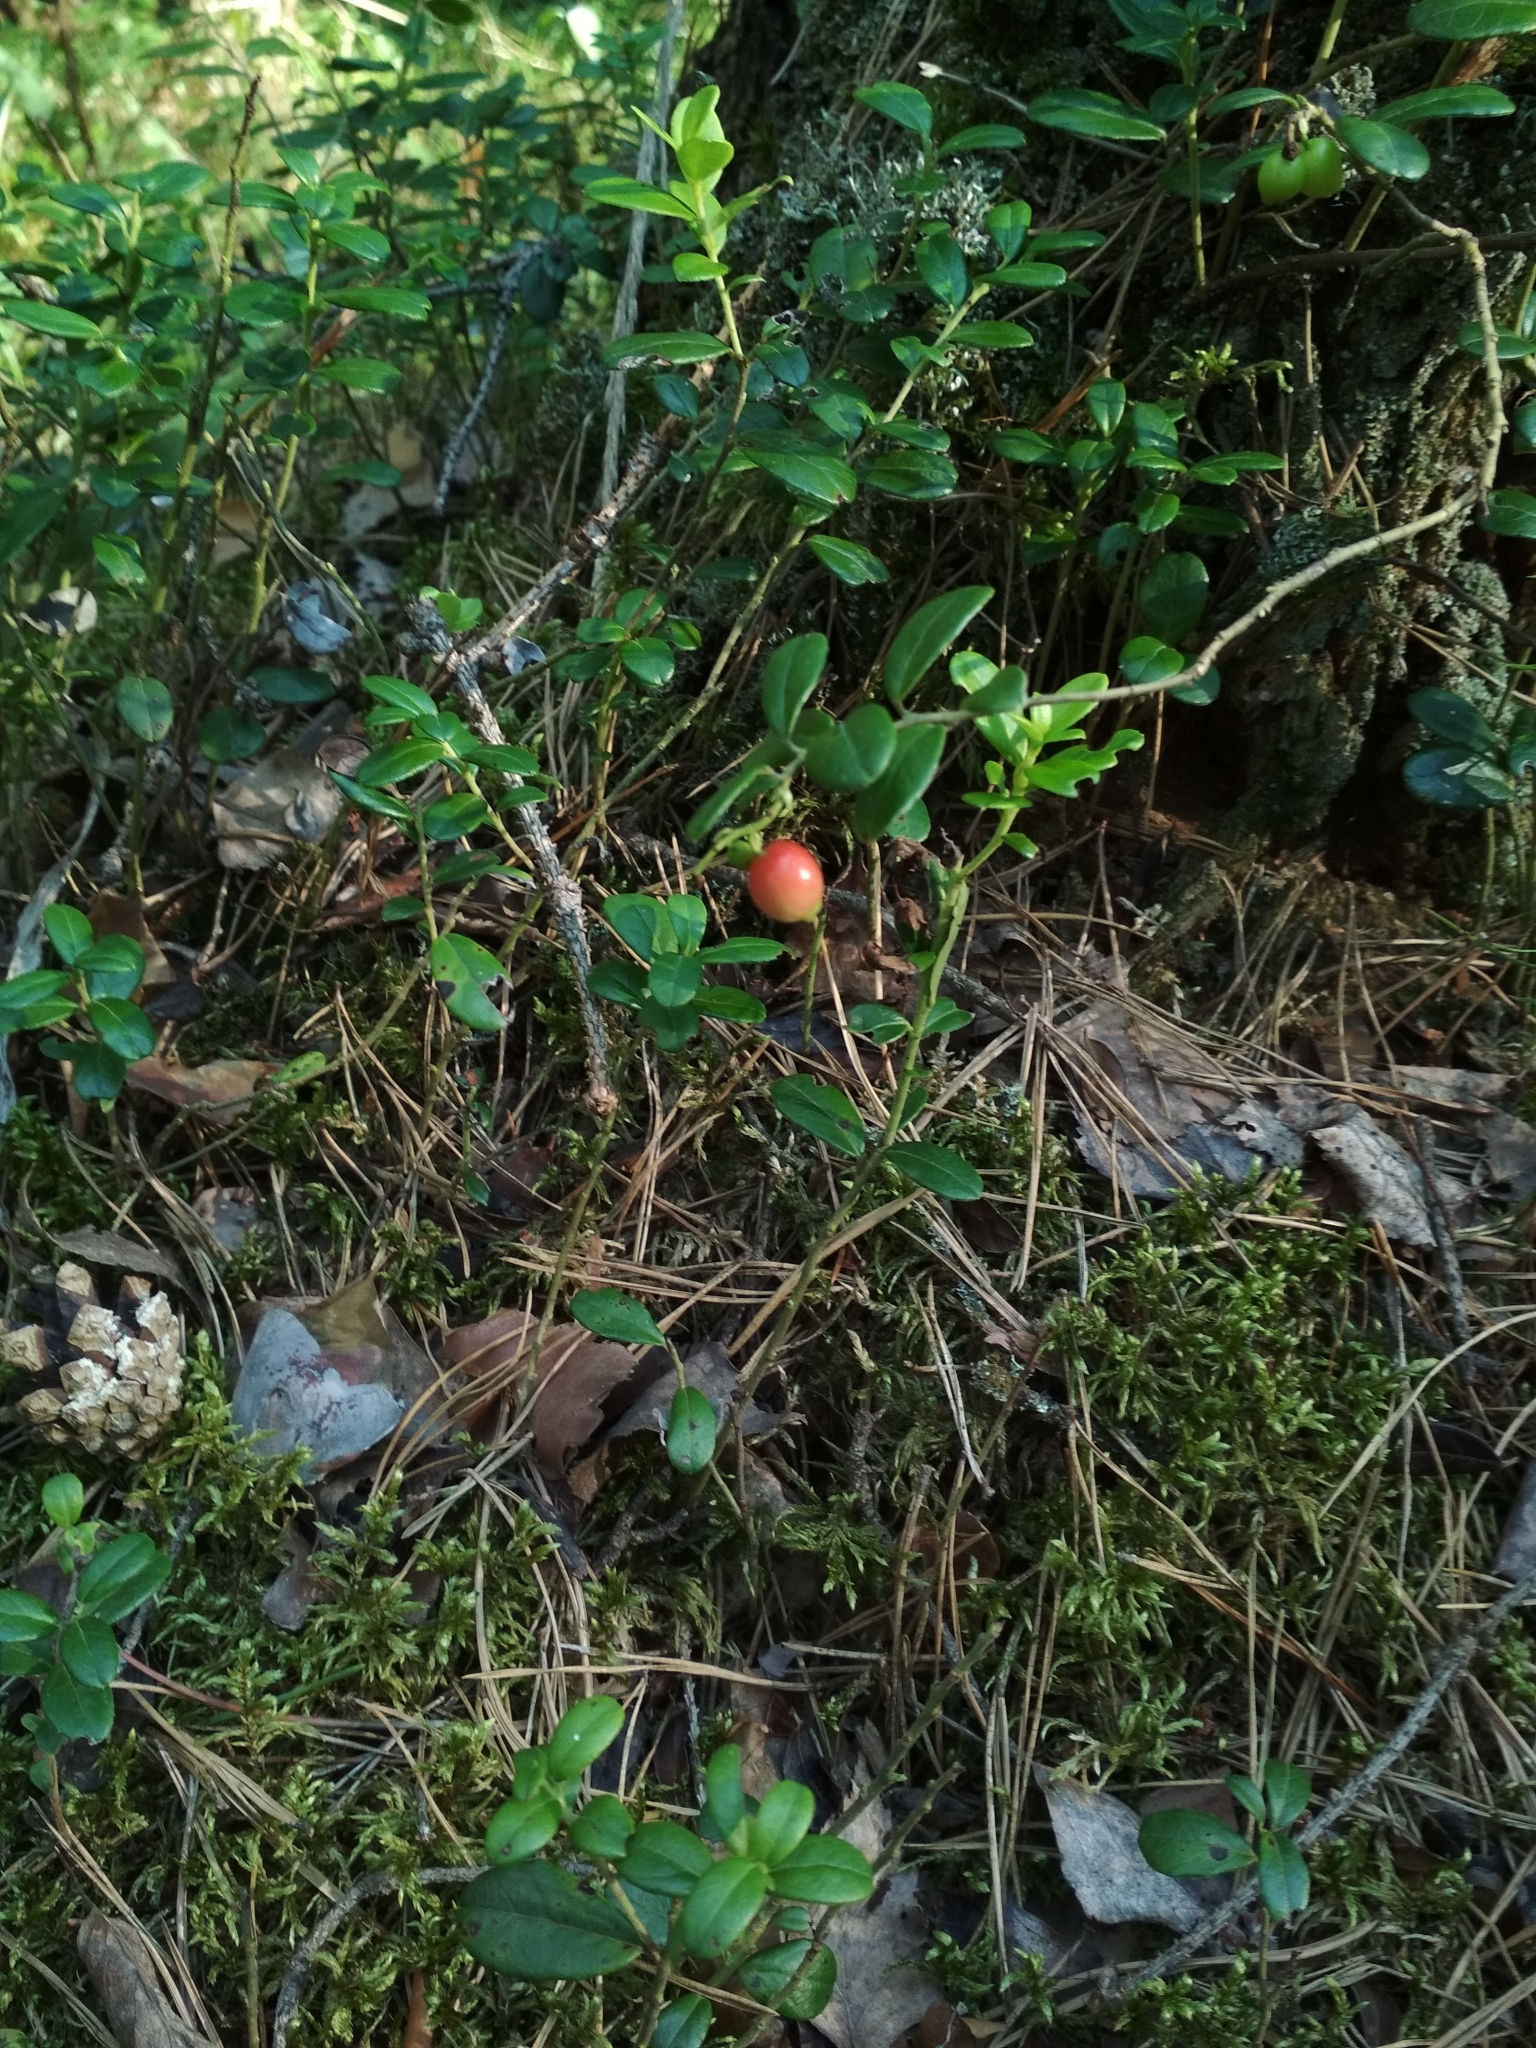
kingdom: Plantae
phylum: Tracheophyta
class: Magnoliopsida
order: Ericales
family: Ericaceae
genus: Vaccinium
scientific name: Vaccinium vitis-idaea
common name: Cowberry
